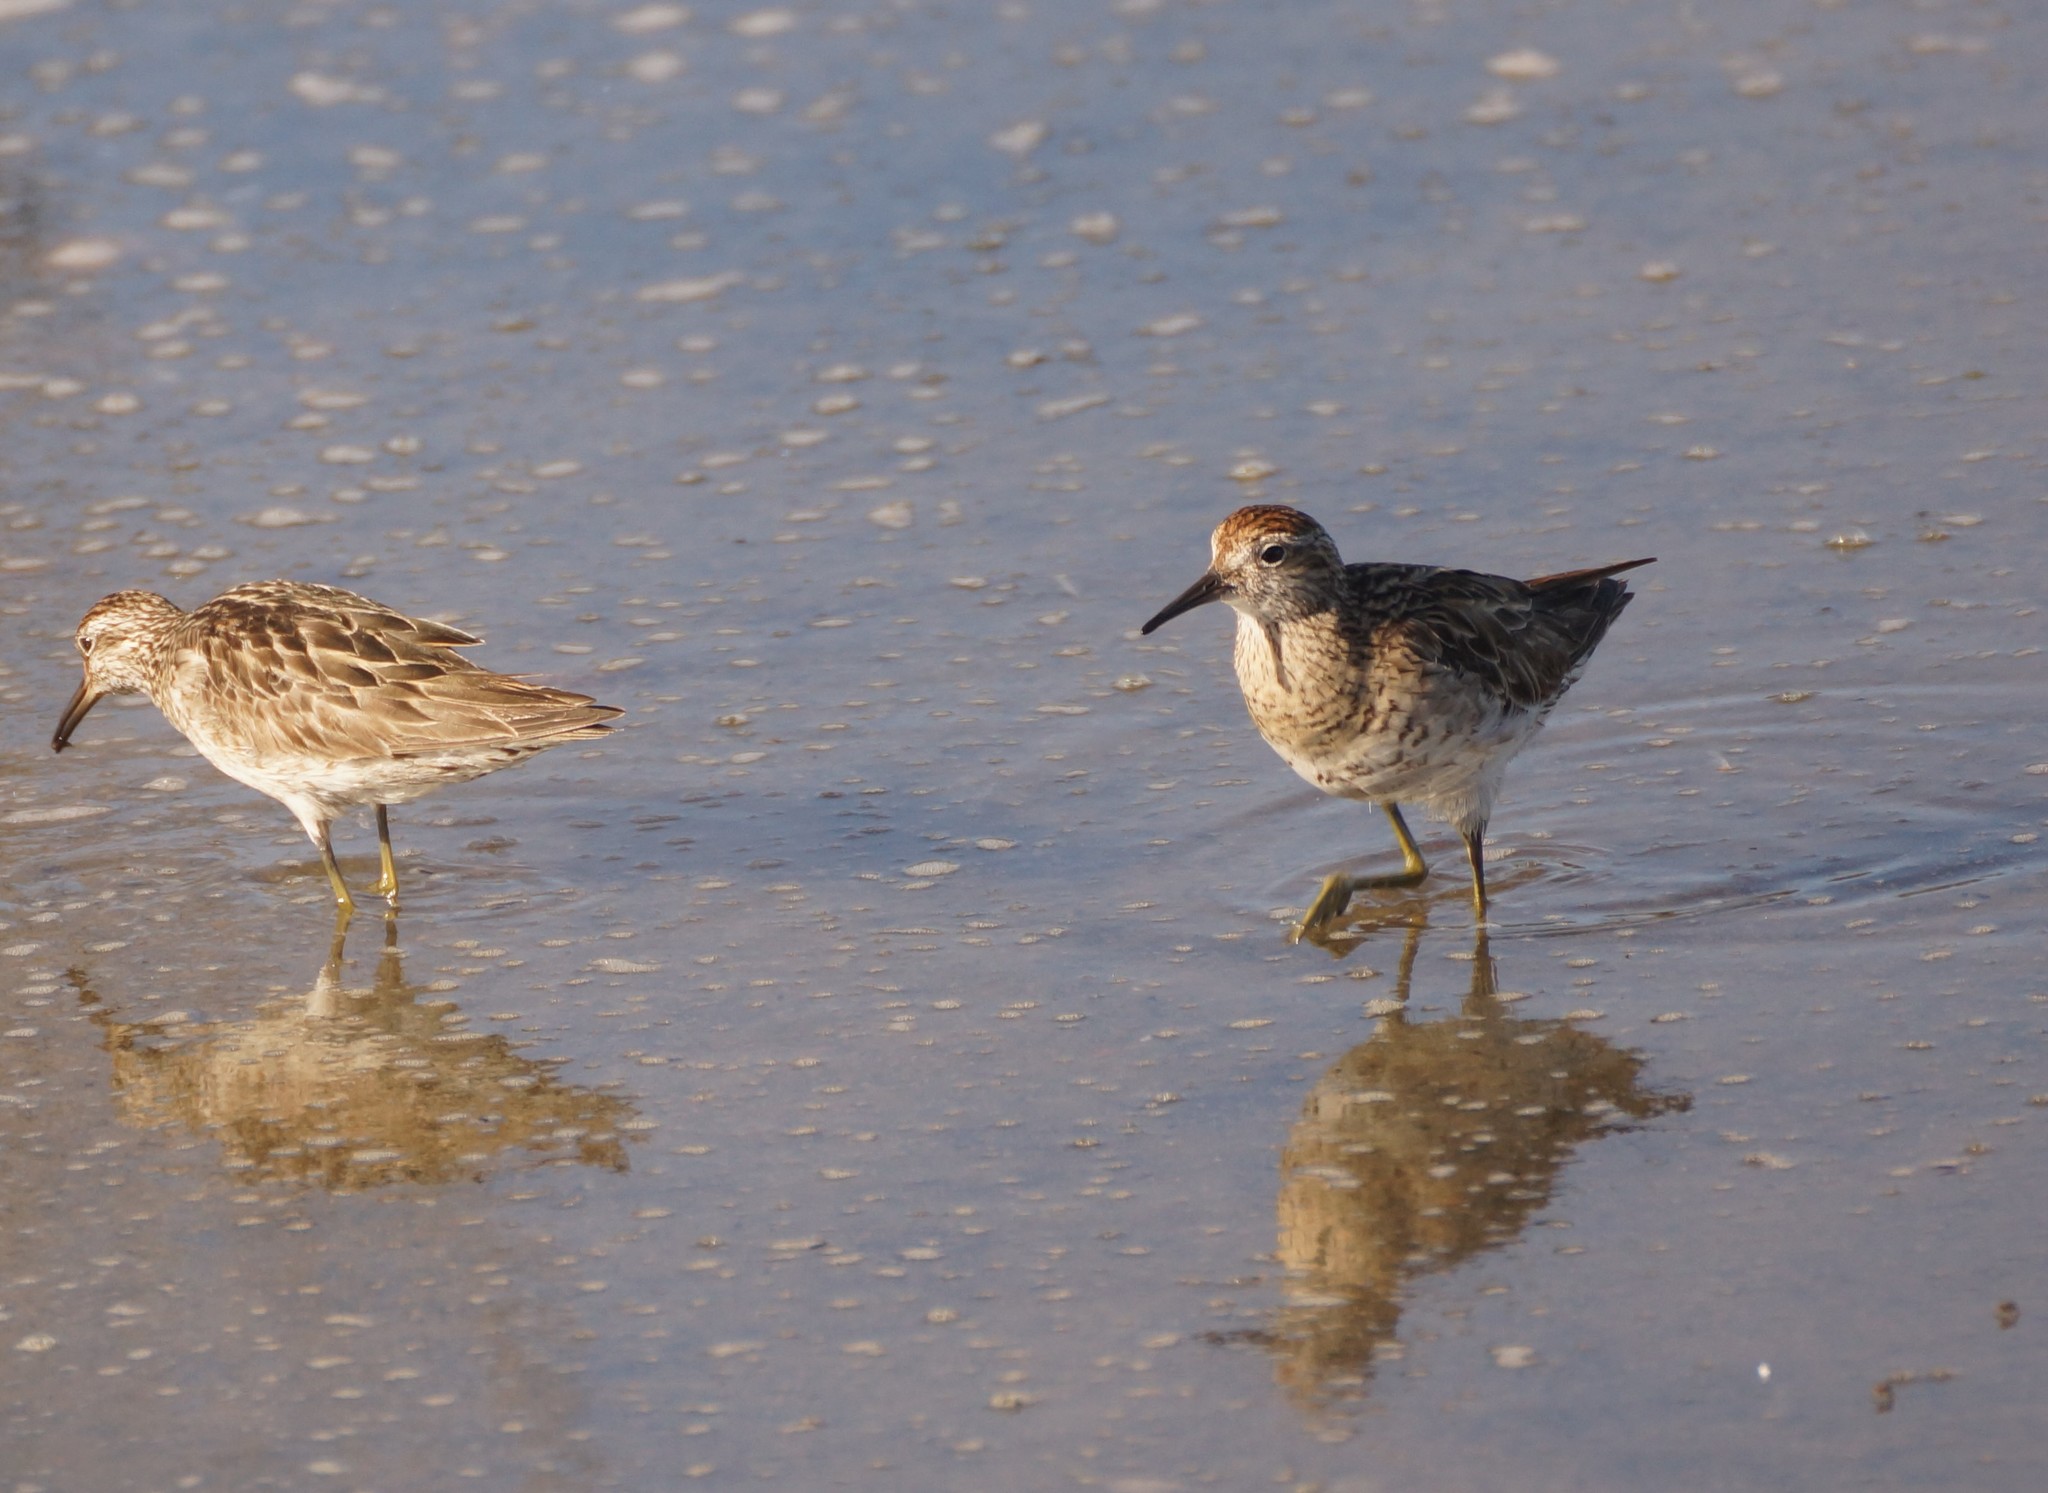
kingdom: Animalia
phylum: Chordata
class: Aves
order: Charadriiformes
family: Scolopacidae
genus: Calidris
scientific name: Calidris acuminata
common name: Sharp-tailed sandpiper
